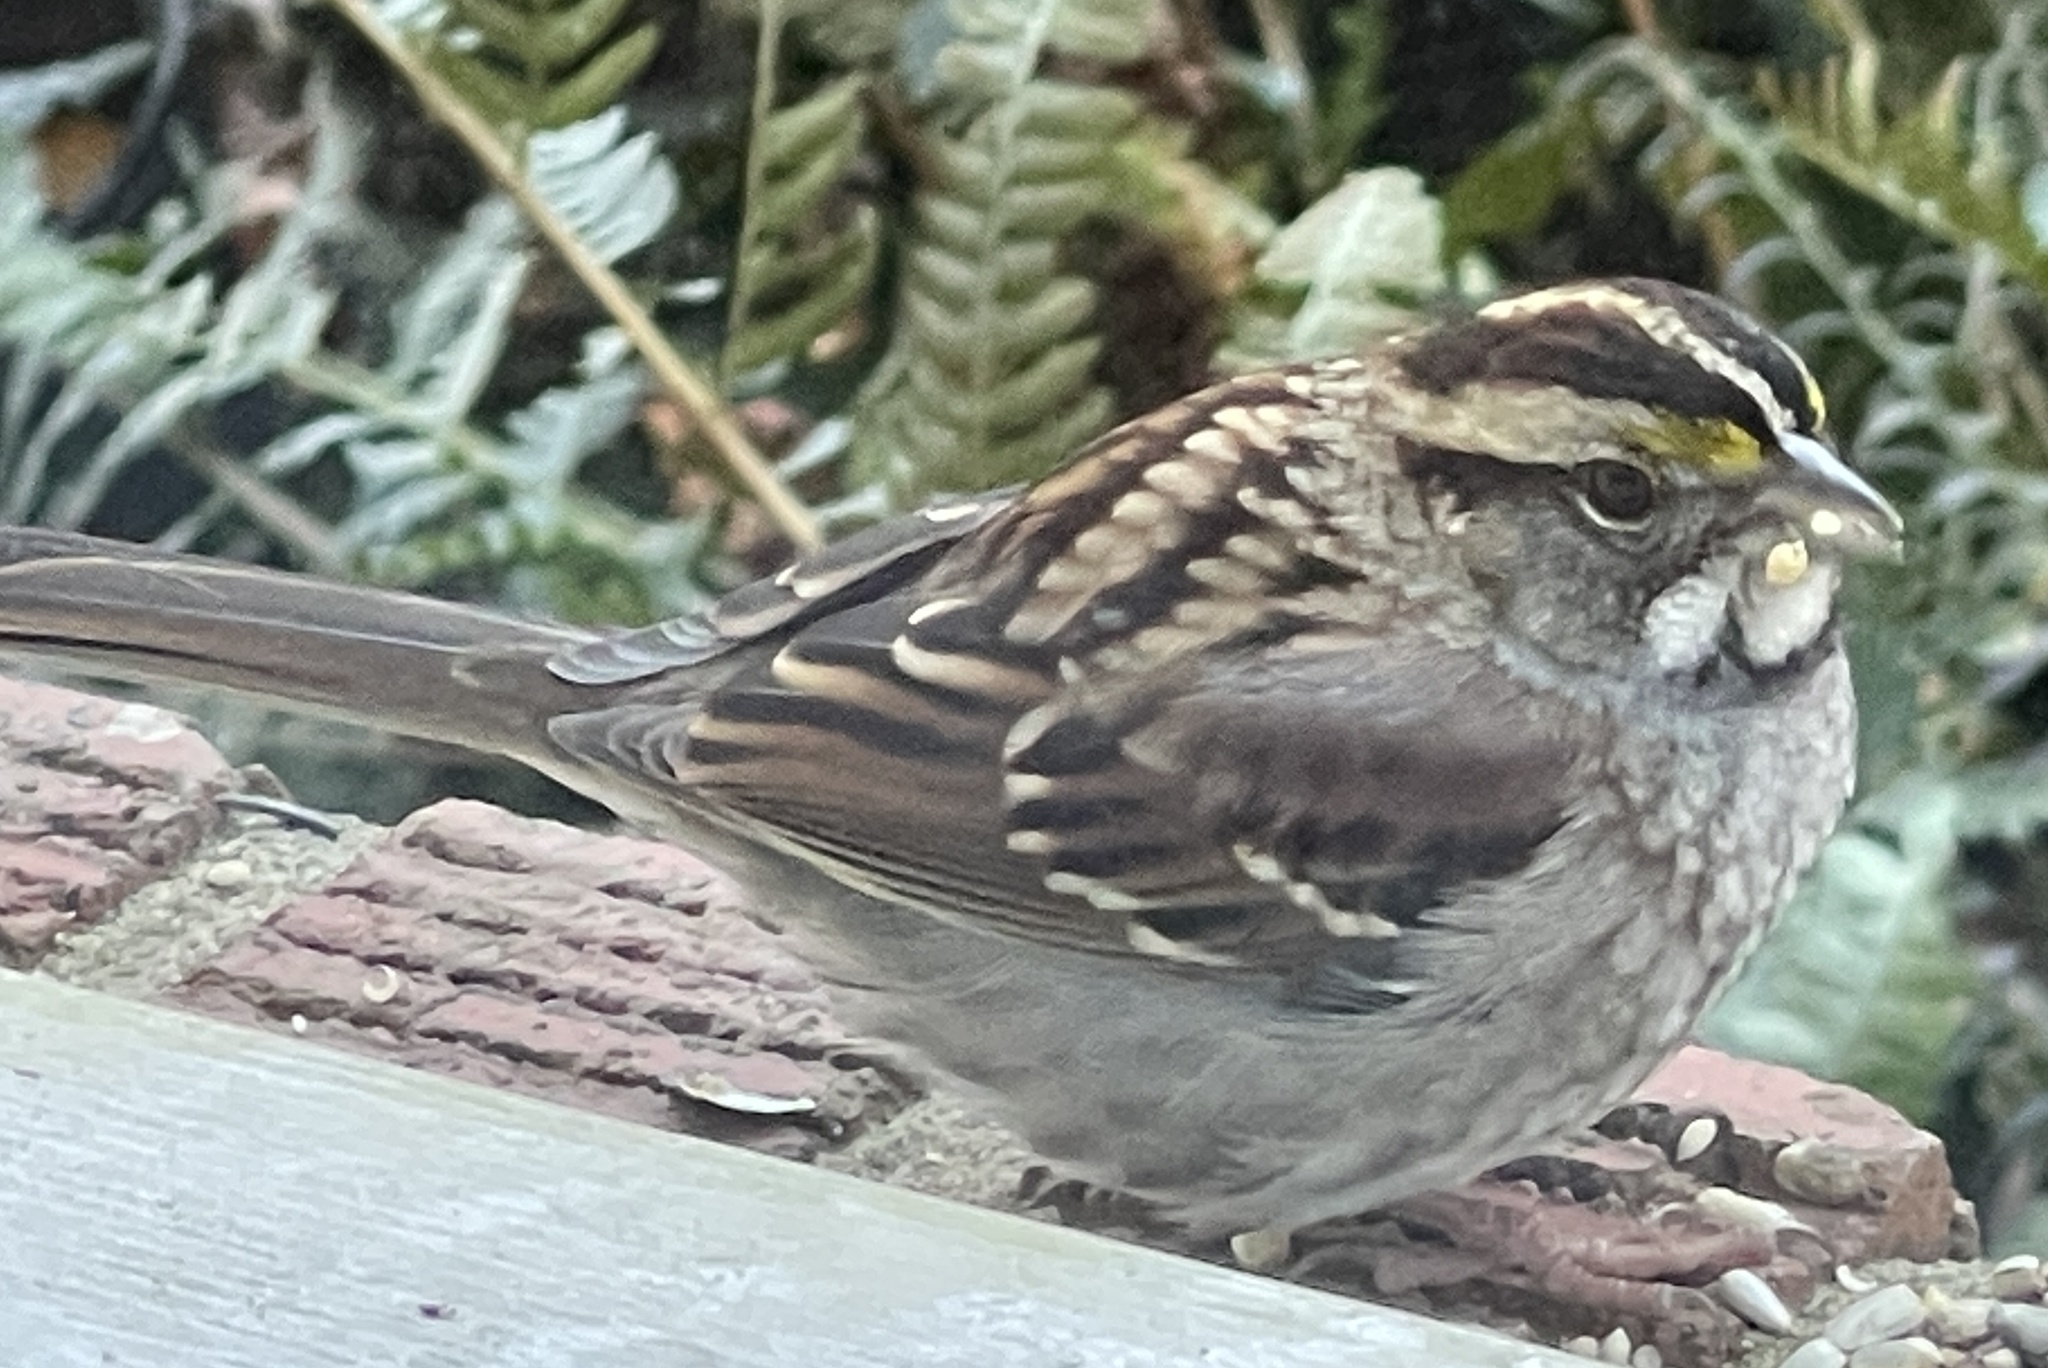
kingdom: Animalia
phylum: Chordata
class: Aves
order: Passeriformes
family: Passerellidae
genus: Zonotrichia
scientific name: Zonotrichia albicollis
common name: White-throated sparrow
